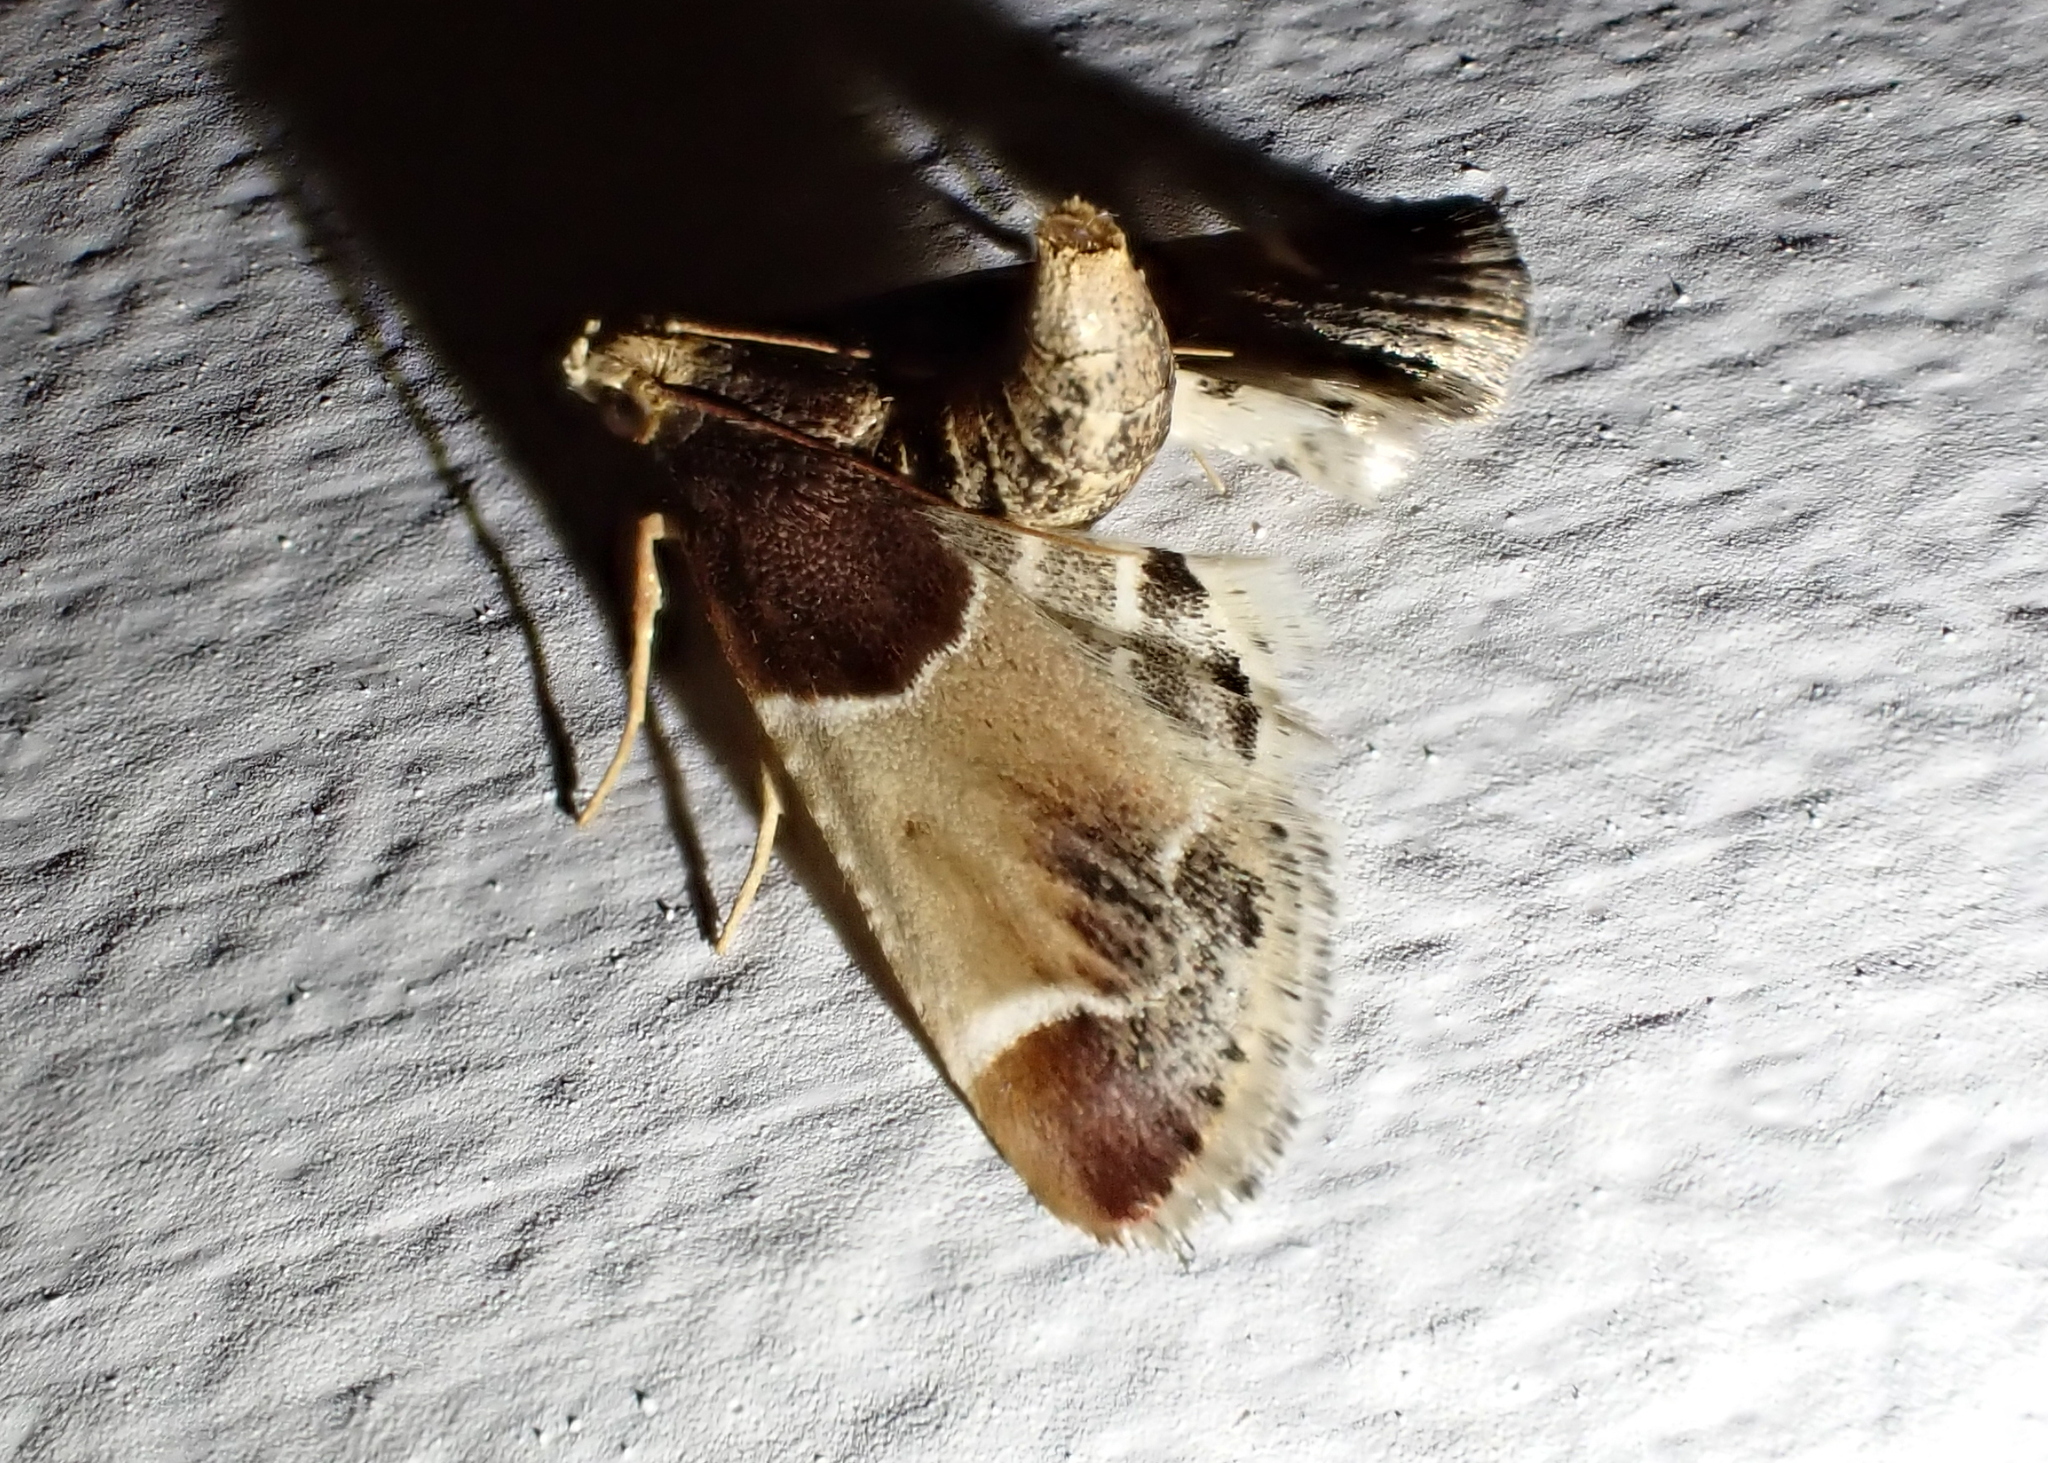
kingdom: Animalia
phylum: Arthropoda
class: Insecta
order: Lepidoptera
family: Pyralidae
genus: Pyralis
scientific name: Pyralis farinalis
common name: Meal moth
